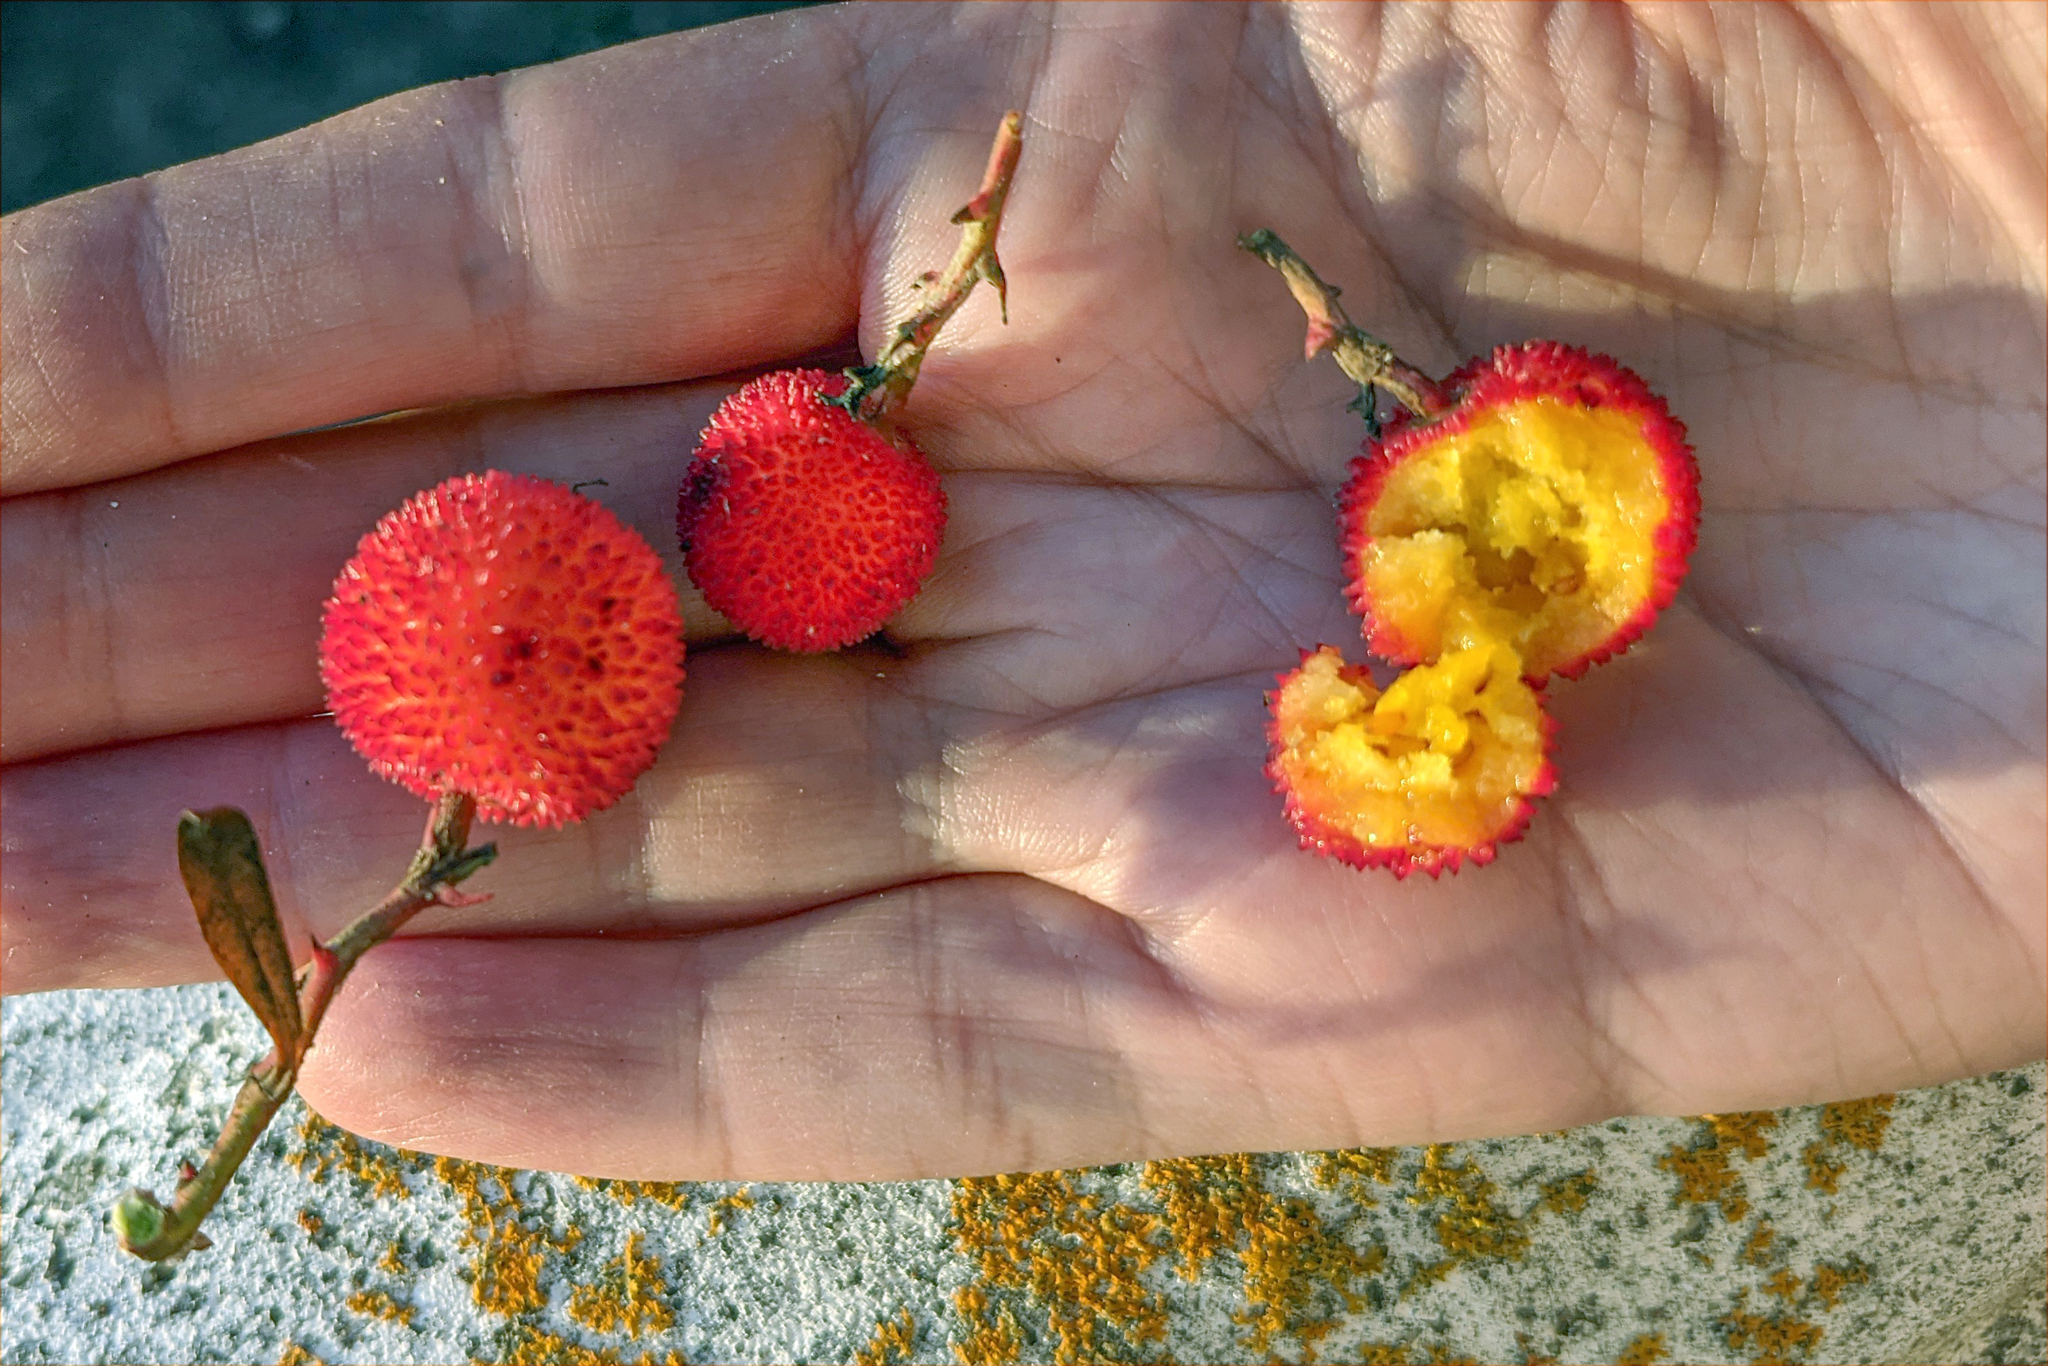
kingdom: Plantae
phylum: Tracheophyta
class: Magnoliopsida
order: Ericales
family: Ericaceae
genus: Arbutus
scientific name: Arbutus unedo
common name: Strawberry-tree
